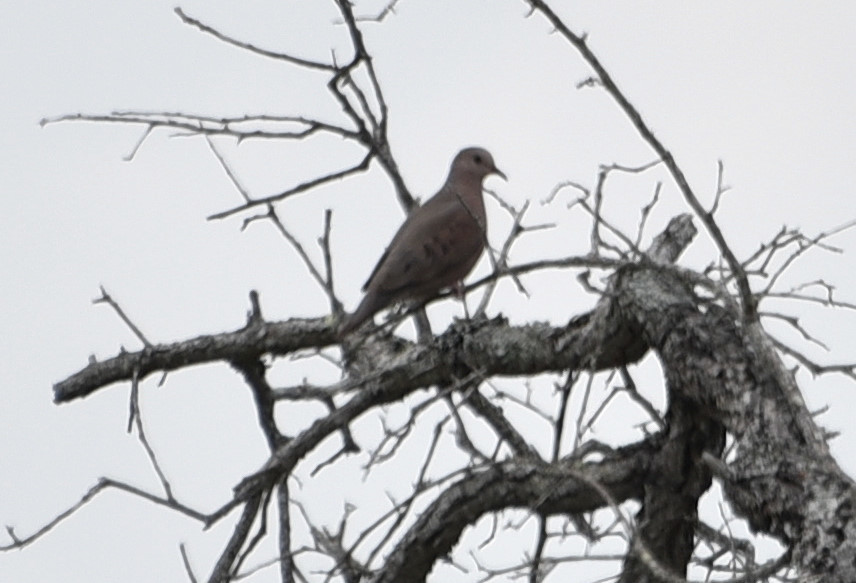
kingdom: Animalia
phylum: Chordata
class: Aves
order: Columbiformes
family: Columbidae
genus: Columbina
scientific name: Columbina passerina
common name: Common ground-dove
